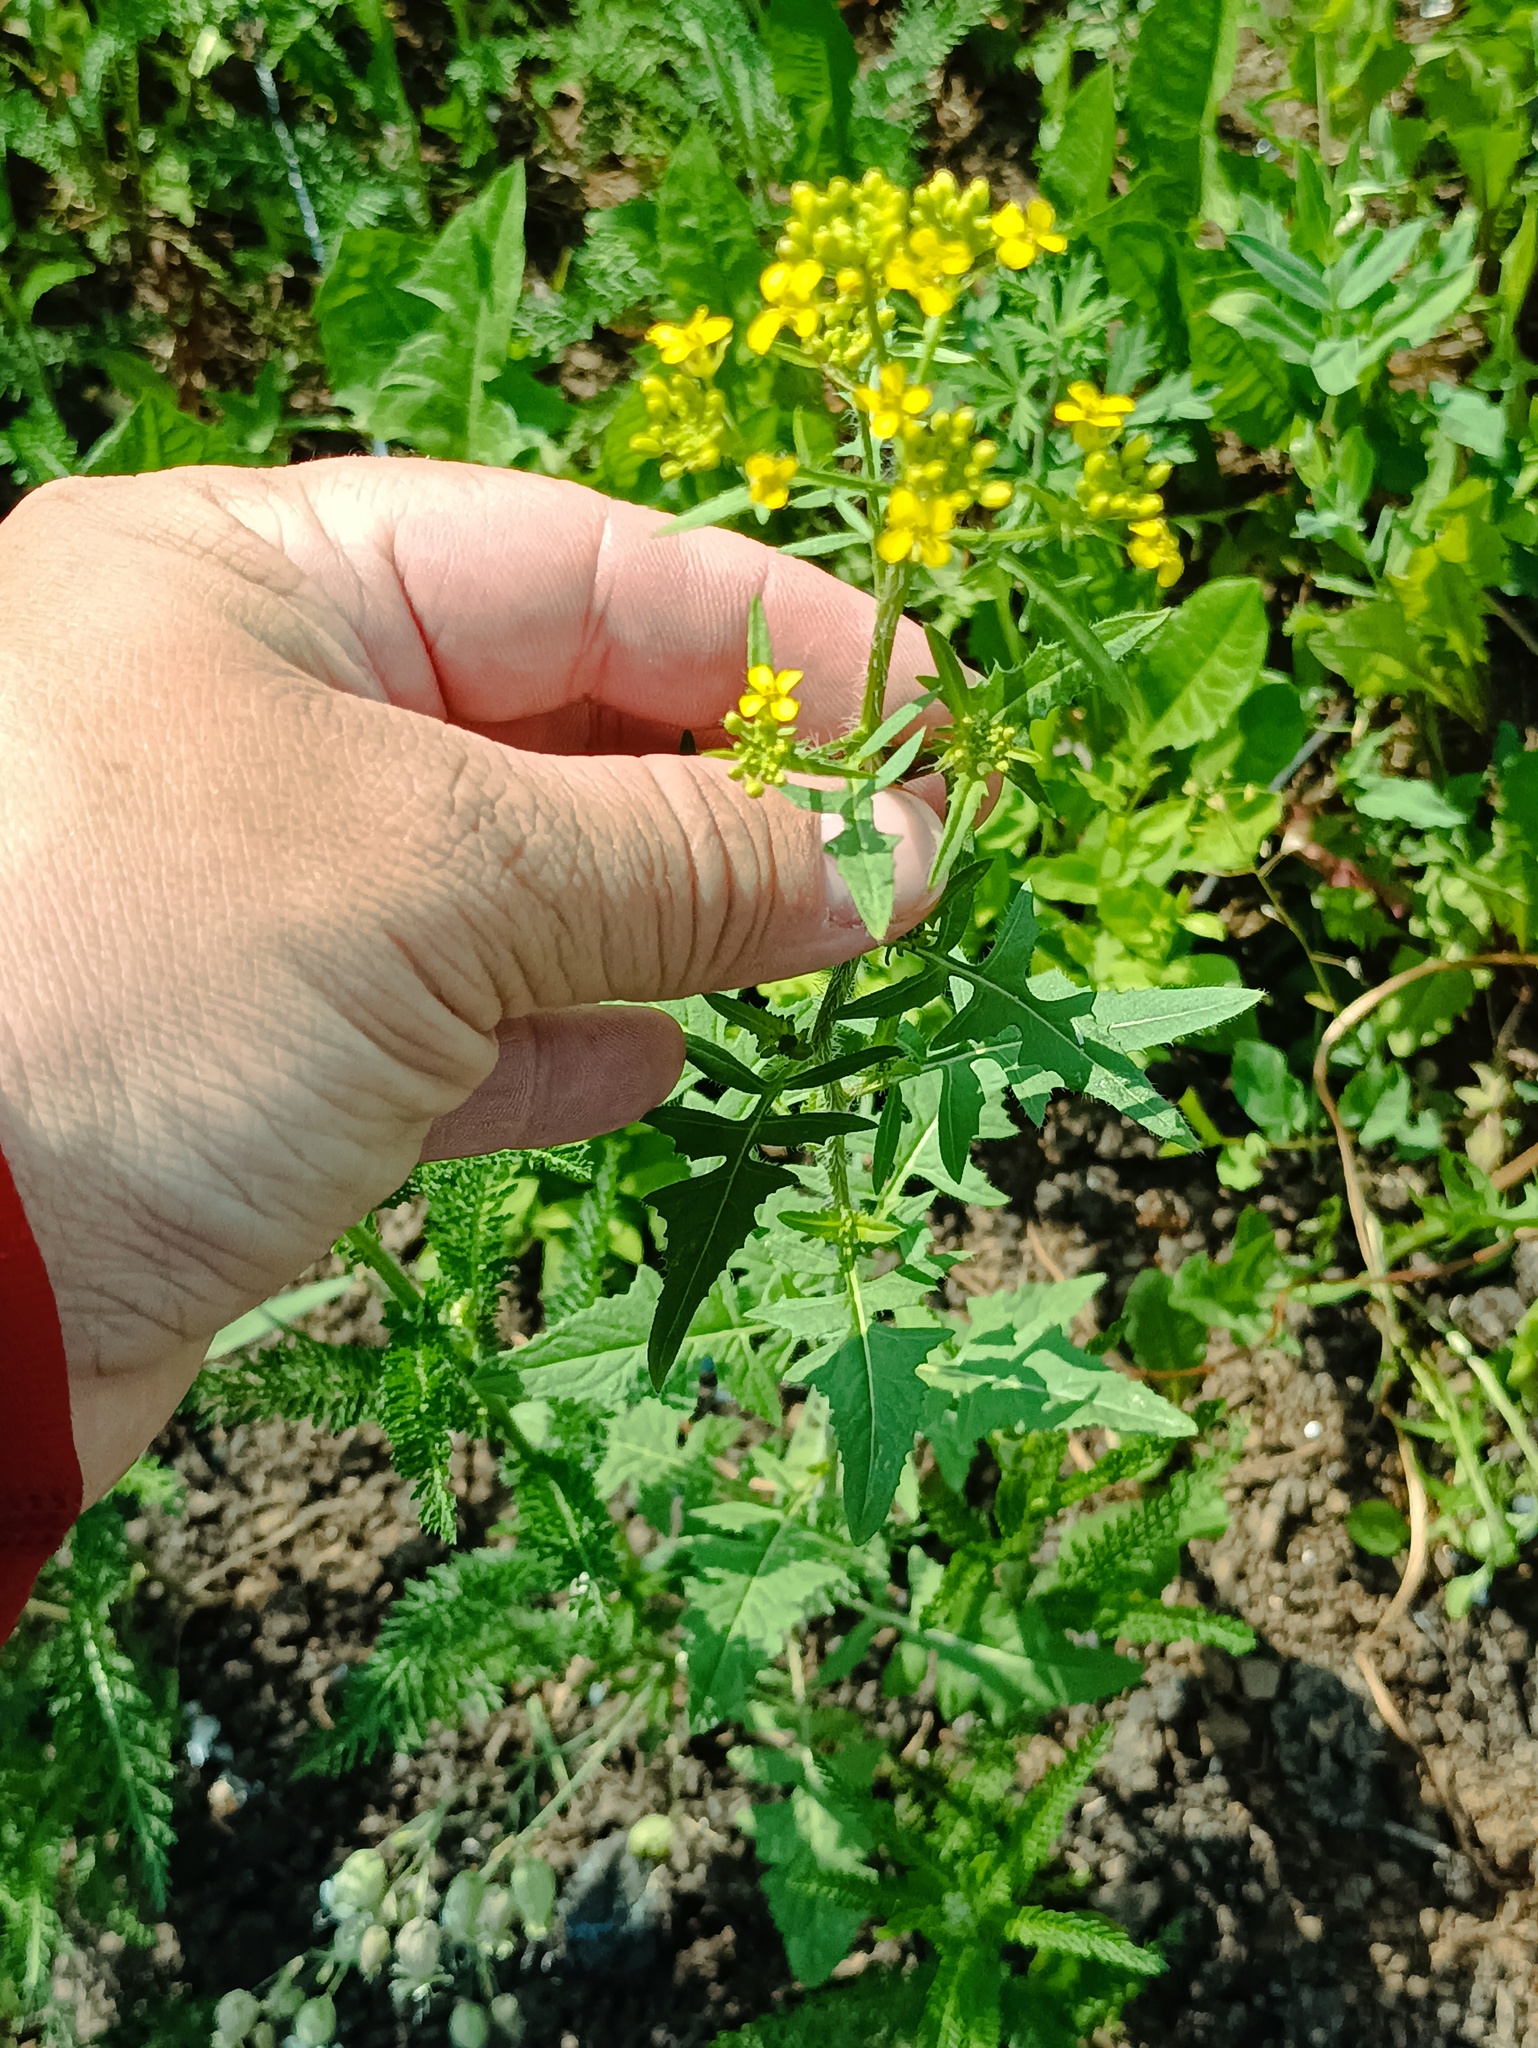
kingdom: Plantae
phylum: Tracheophyta
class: Magnoliopsida
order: Brassicales
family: Brassicaceae
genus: Sisymbrium
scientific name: Sisymbrium loeselii
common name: False london-rocket
